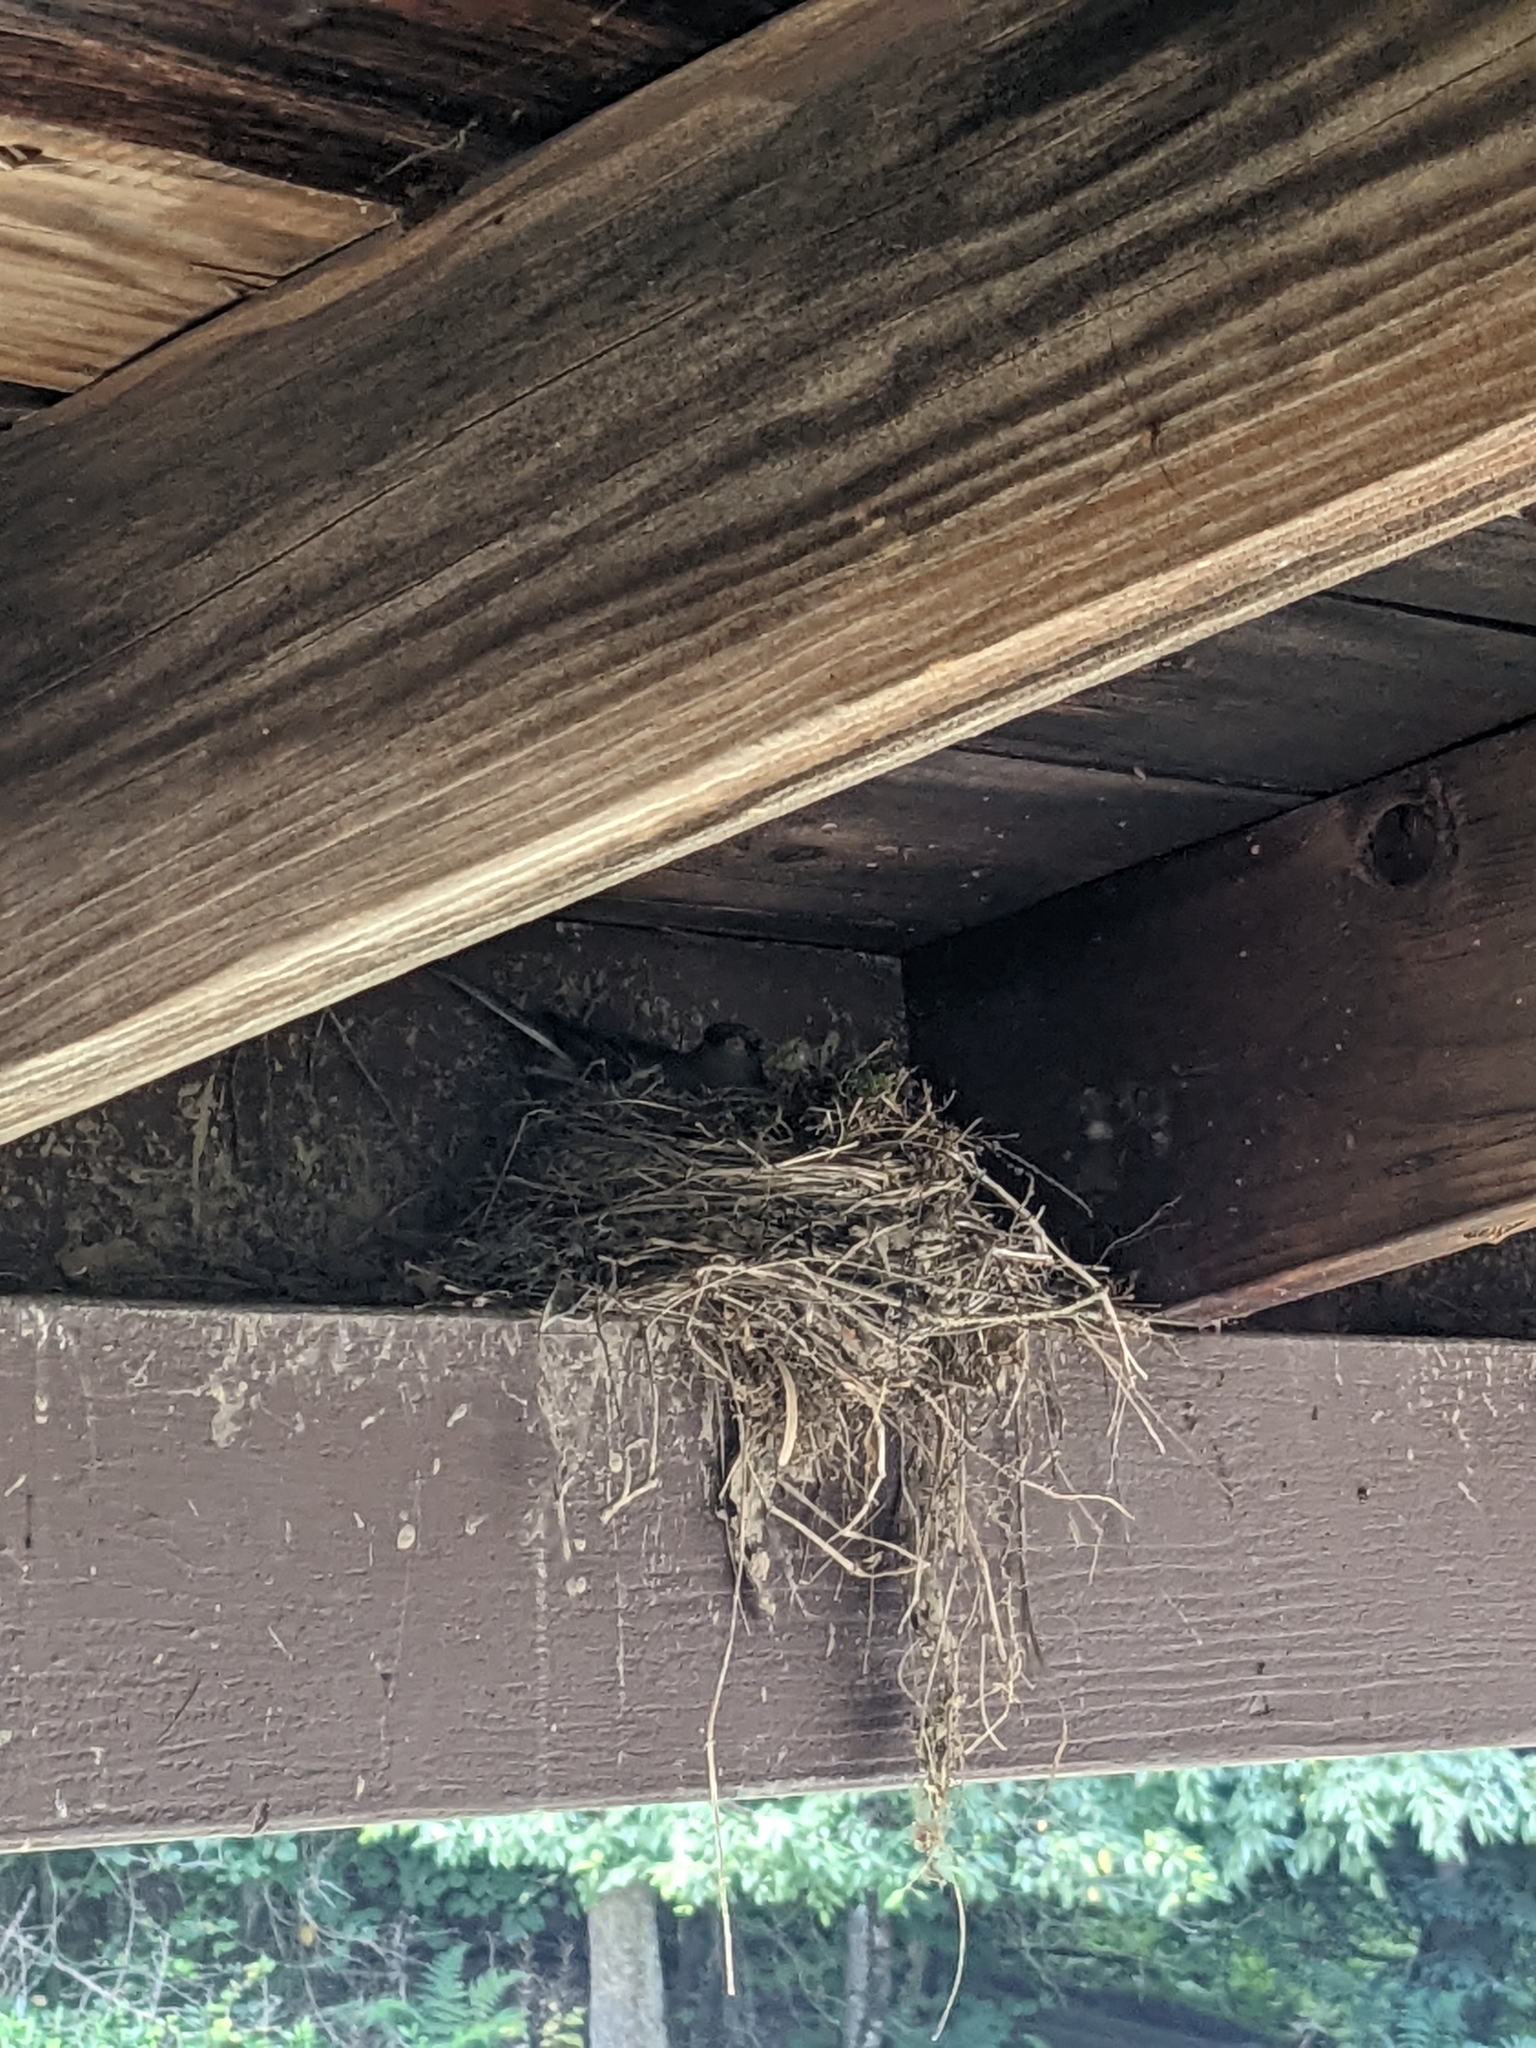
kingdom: Animalia
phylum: Chordata
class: Aves
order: Passeriformes
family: Passerellidae
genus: Junco
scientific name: Junco hyemalis
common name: Dark-eyed junco
